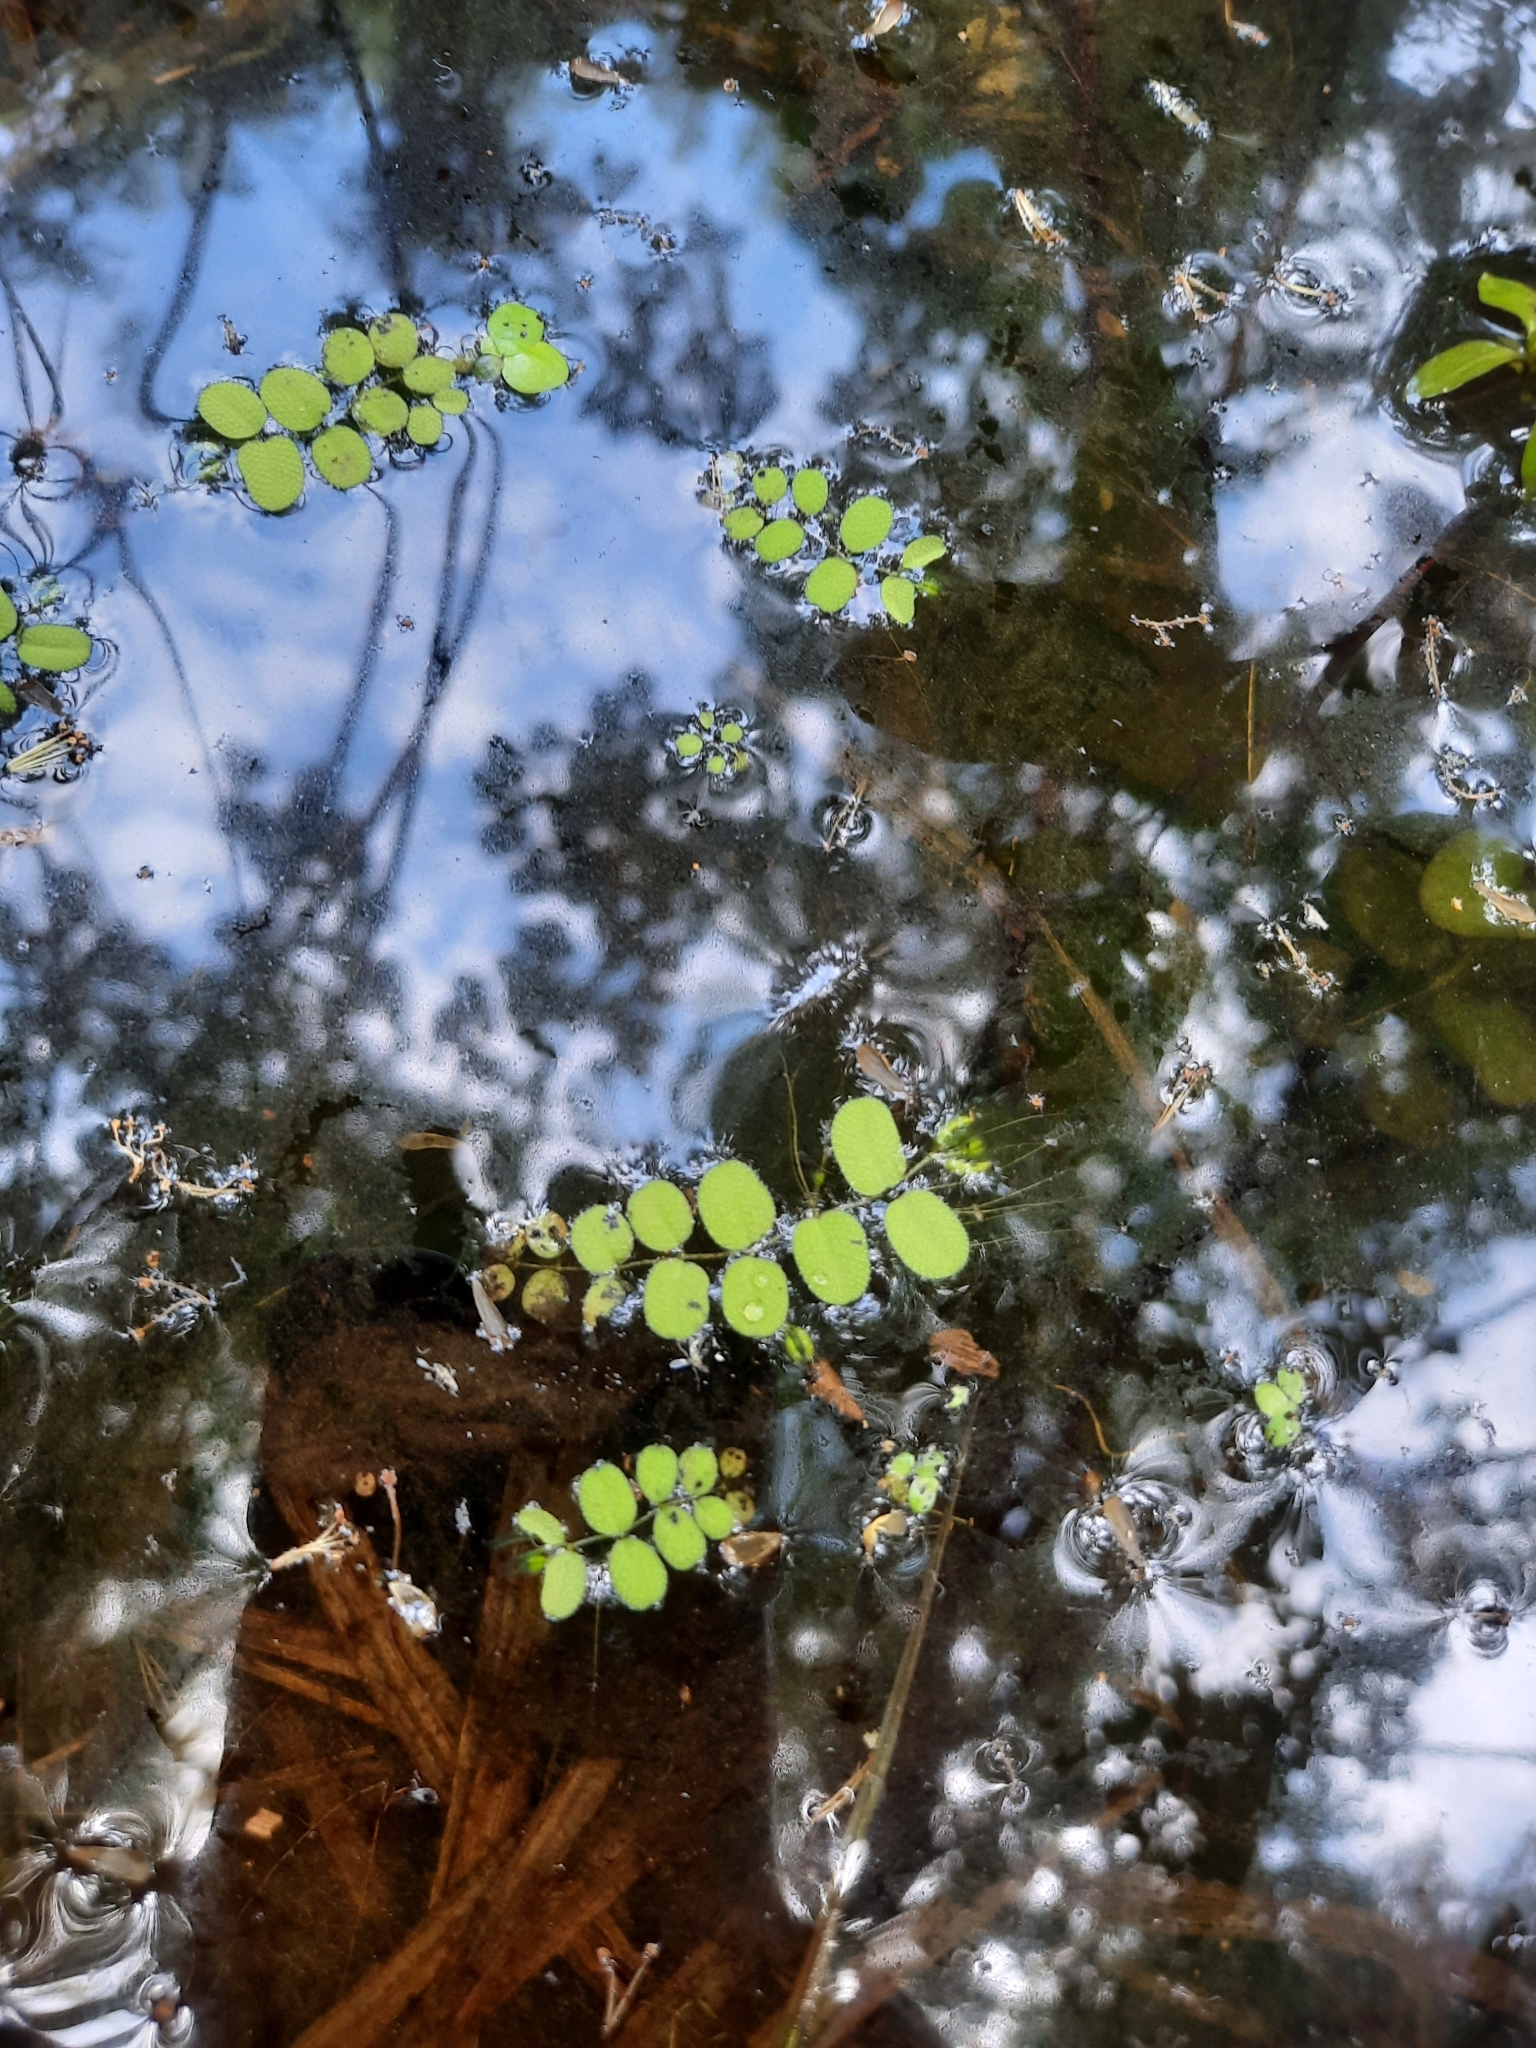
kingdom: Plantae
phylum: Tracheophyta
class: Polypodiopsida
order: Salviniales
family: Salviniaceae
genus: Salvinia
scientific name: Salvinia natans
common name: Floating fern
